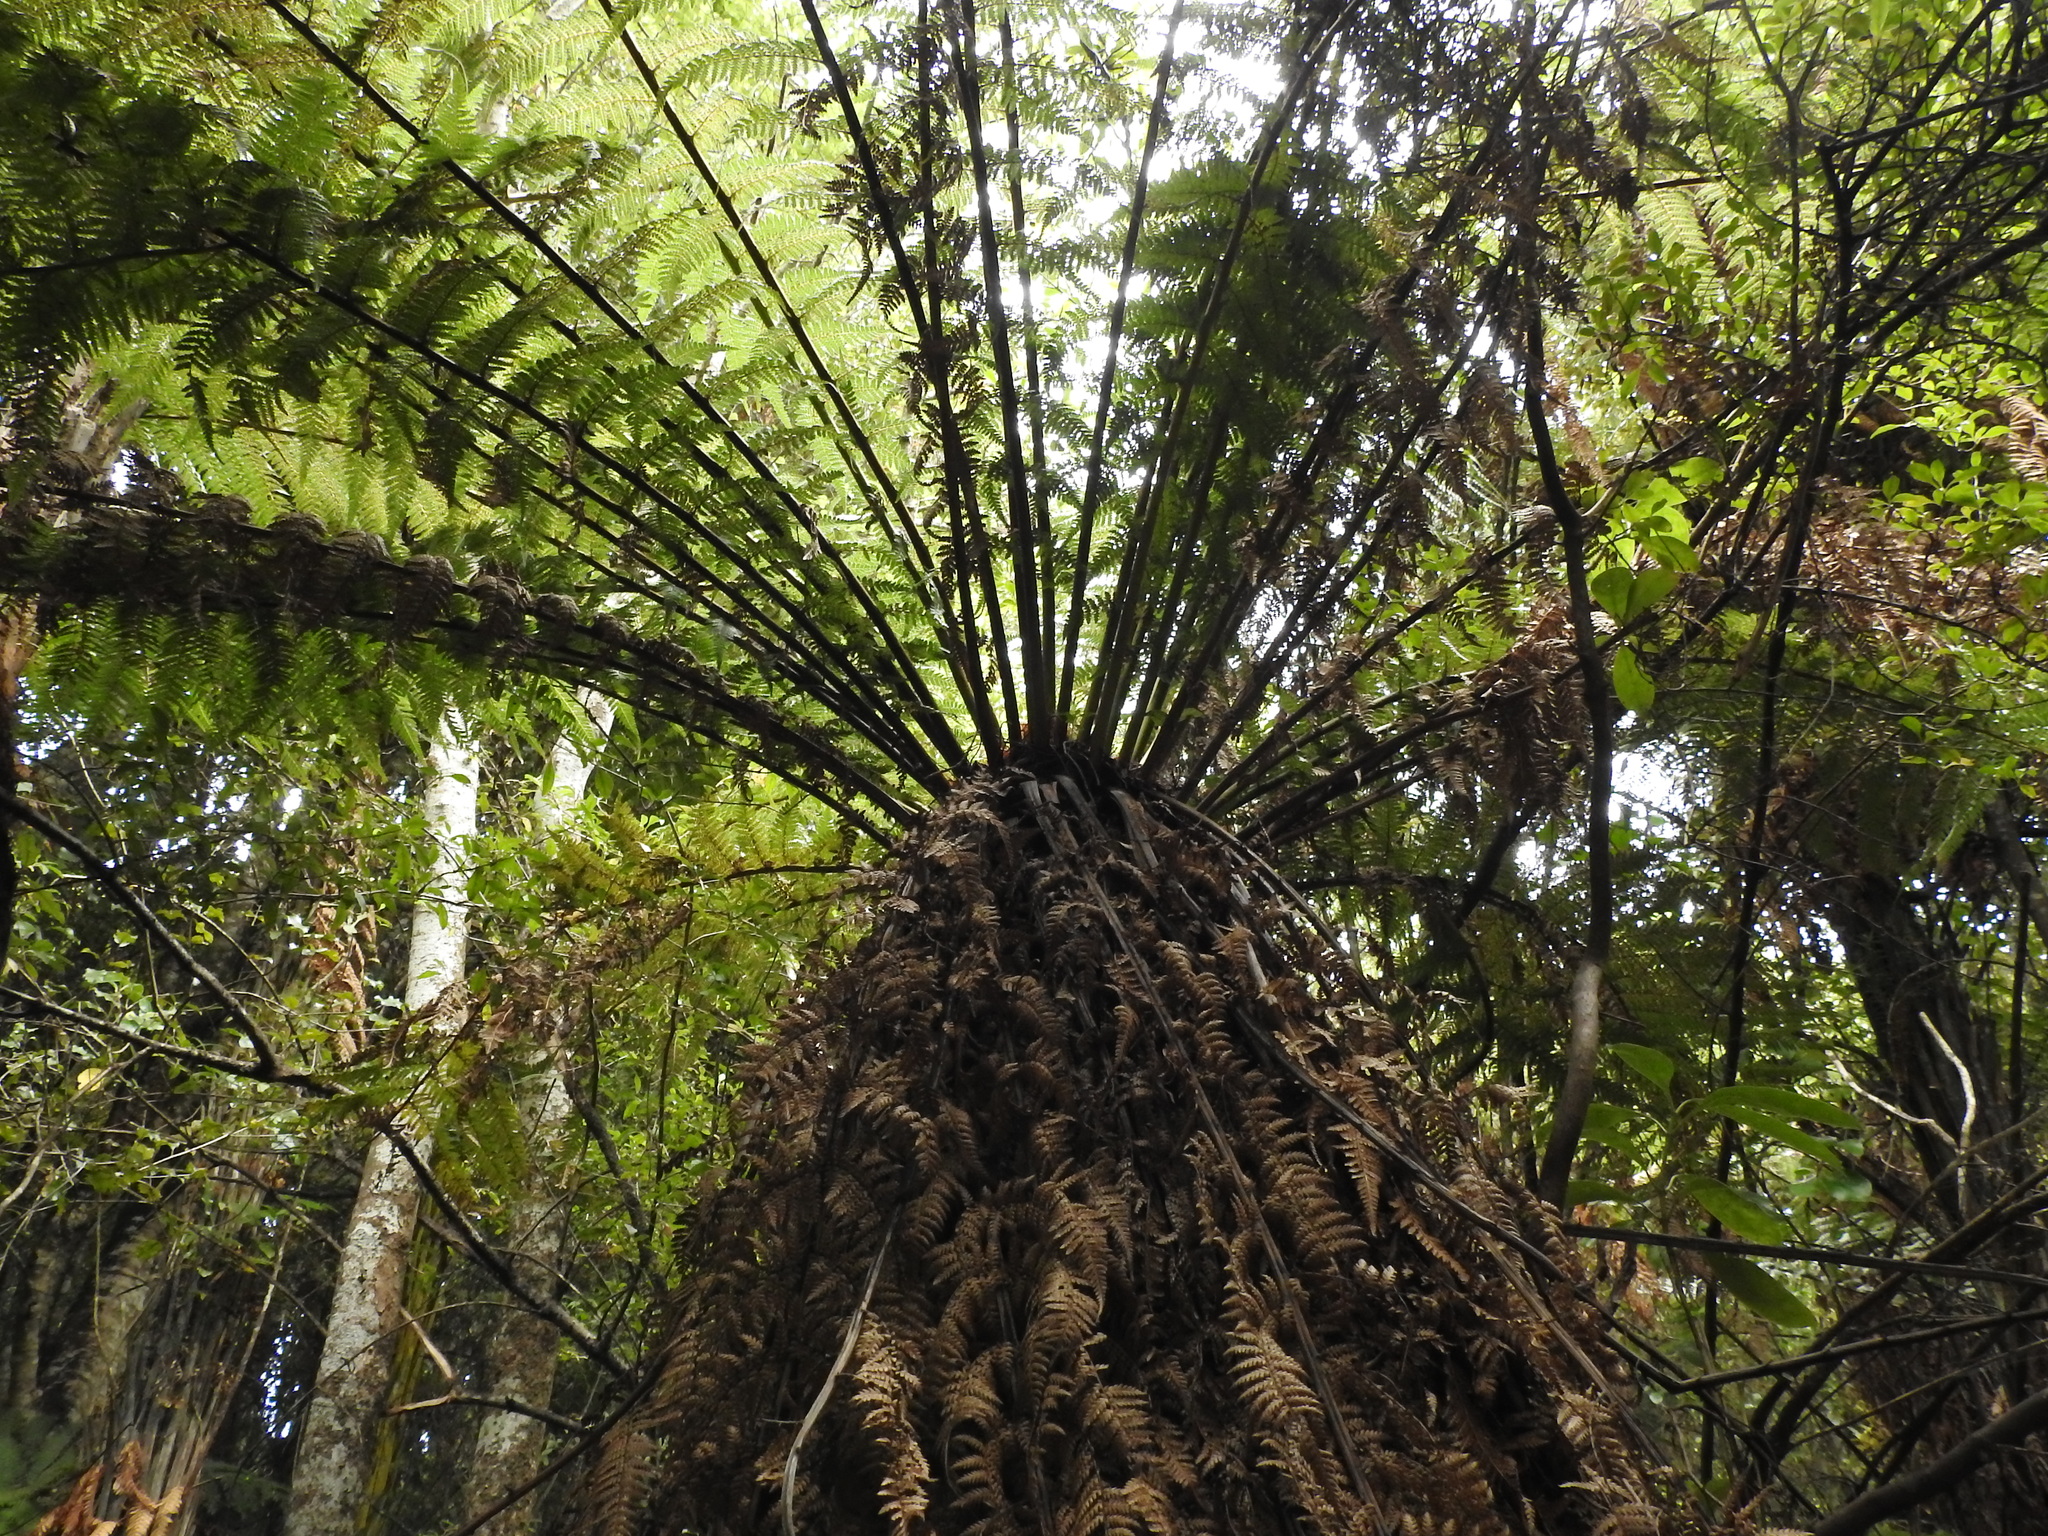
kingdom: Plantae
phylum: Tracheophyta
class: Polypodiopsida
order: Cyatheales
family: Dicksoniaceae
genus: Dicksonia
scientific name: Dicksonia fibrosa
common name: Golden tree fern
